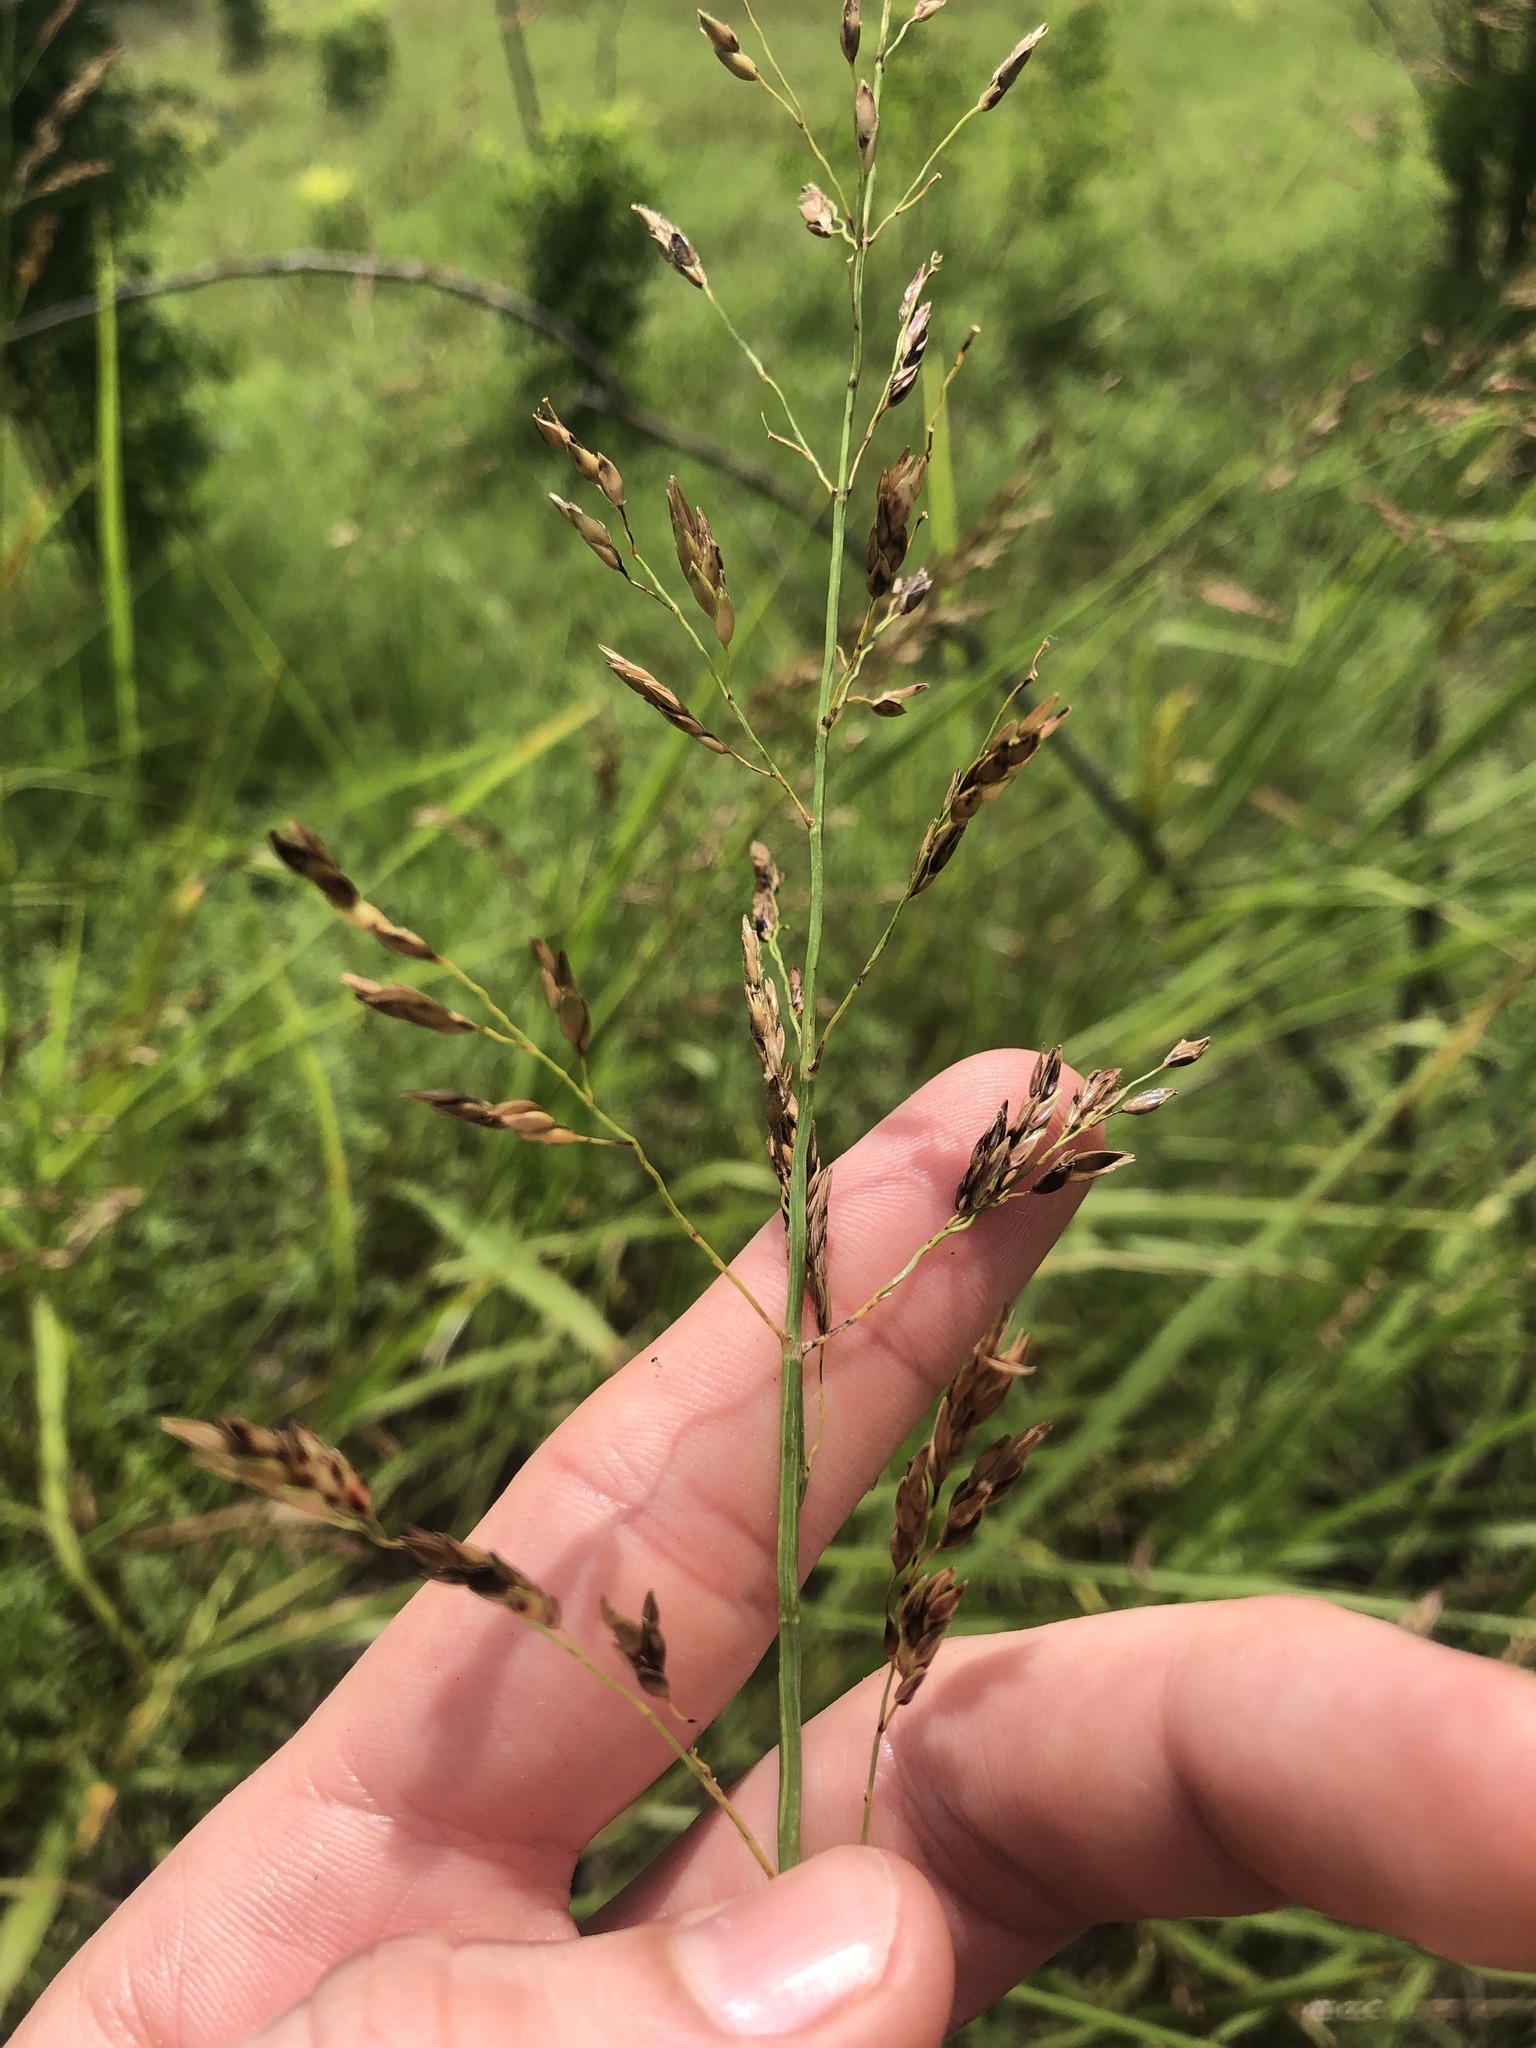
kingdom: Plantae
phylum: Tracheophyta
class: Liliopsida
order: Poales
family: Poaceae
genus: Sorghum
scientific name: Sorghum halepense
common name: Johnson-grass
